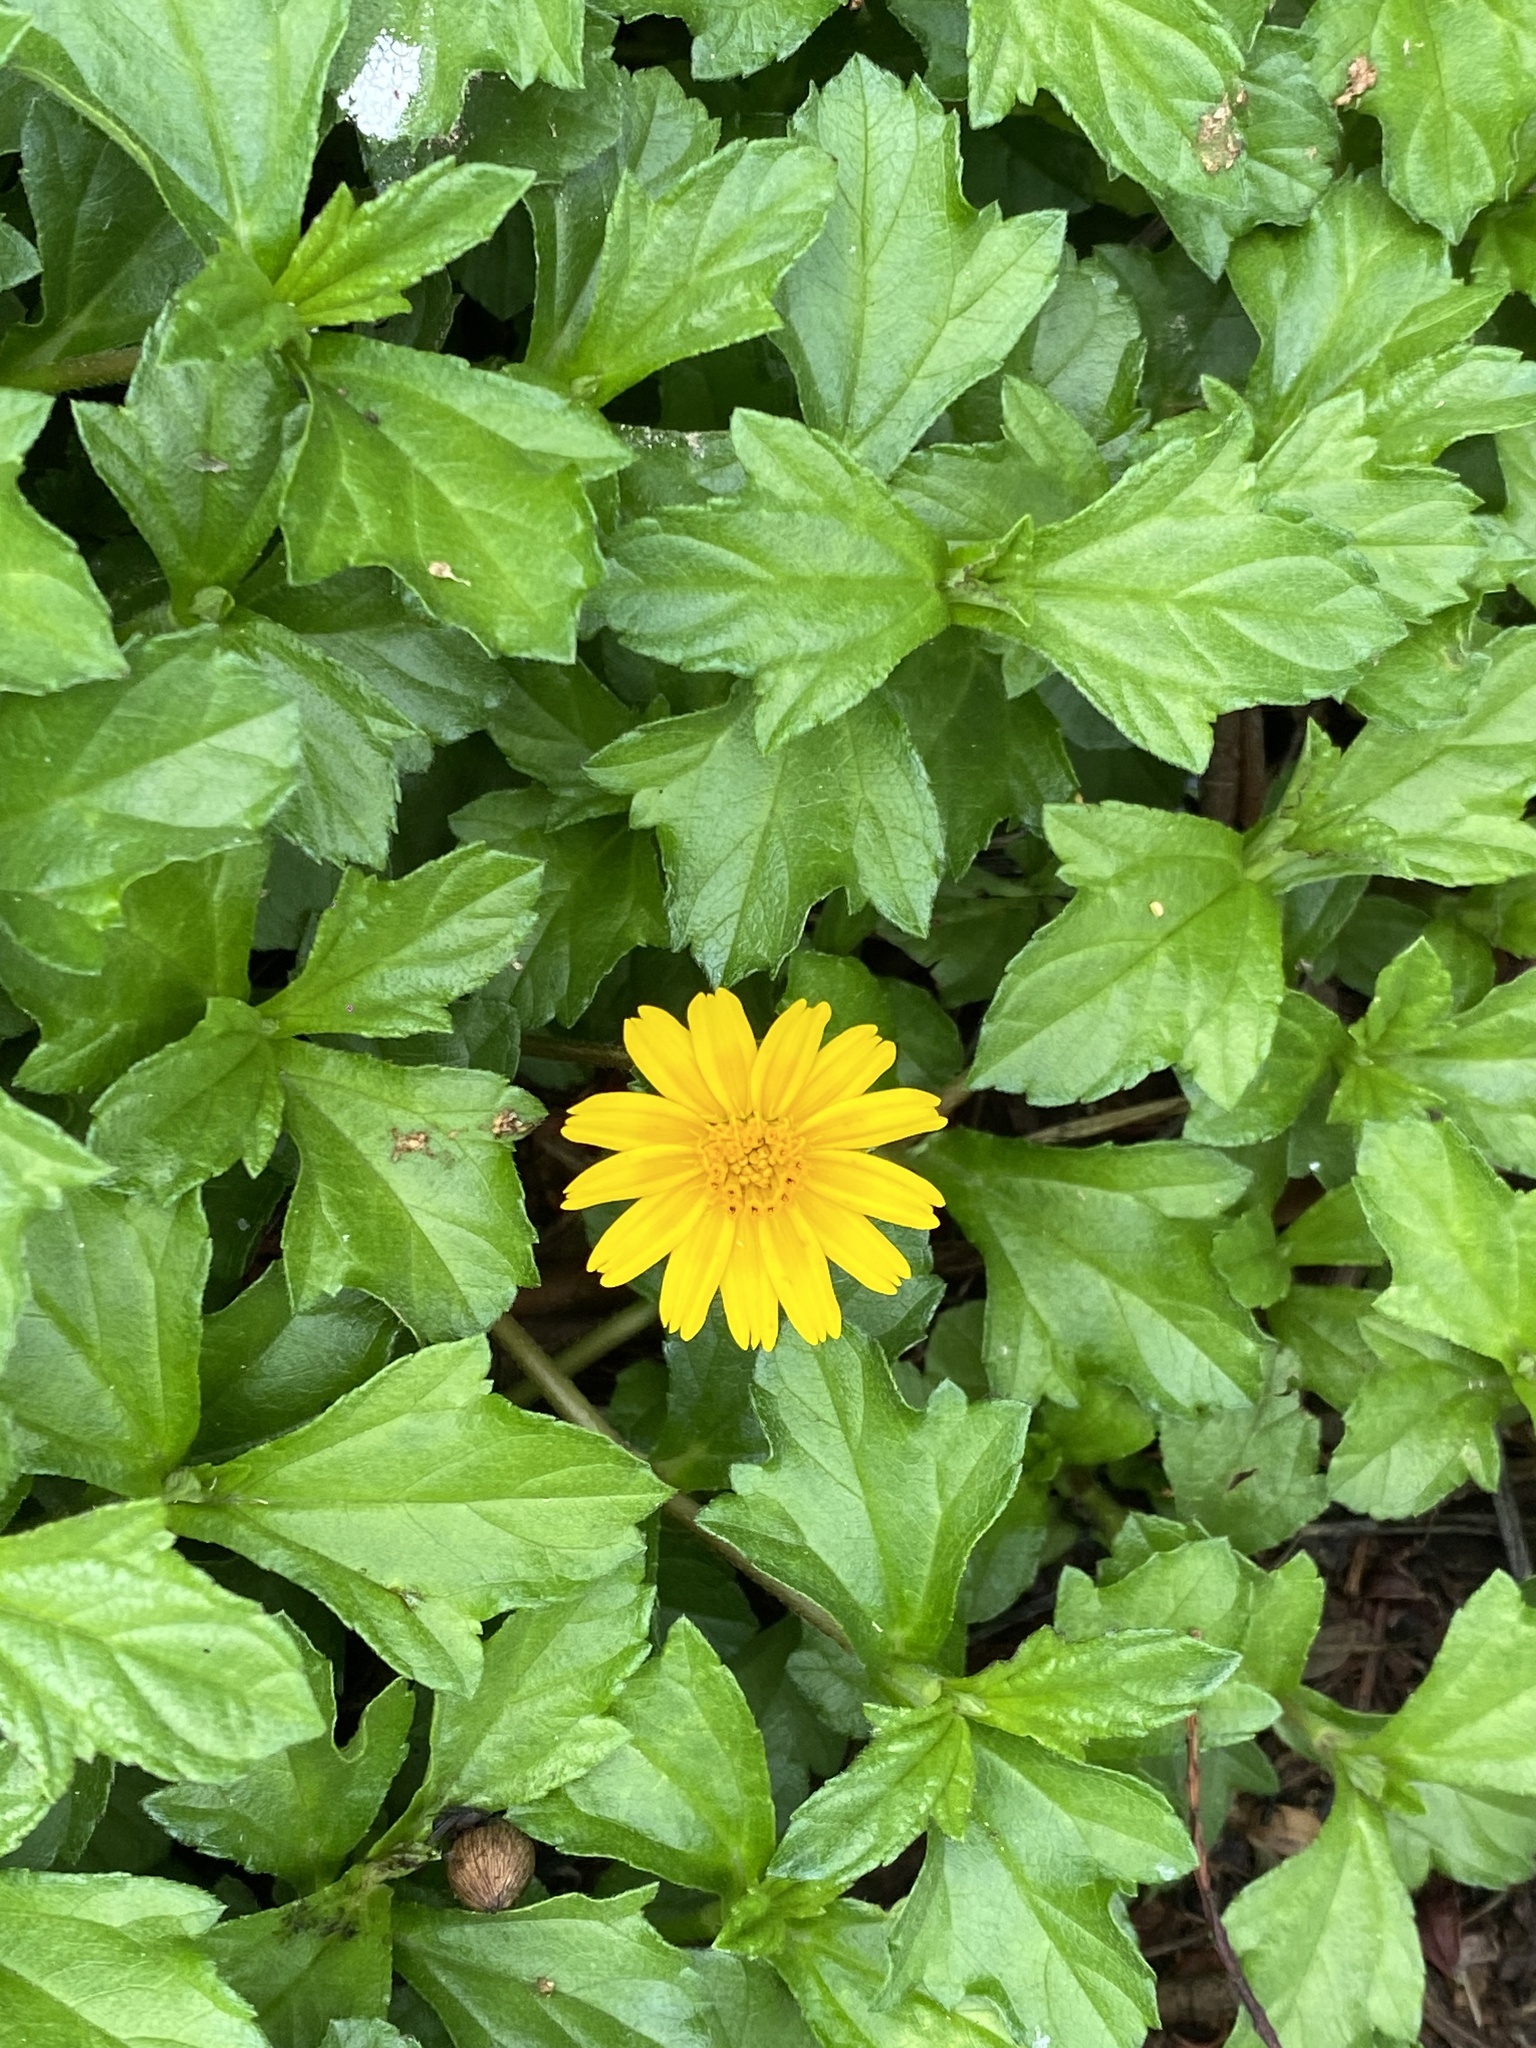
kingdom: Plantae
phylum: Tracheophyta
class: Magnoliopsida
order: Asterales
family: Asteraceae
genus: Sphagneticola
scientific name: Sphagneticola trilobata
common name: Bay biscayne creeping-oxeye
